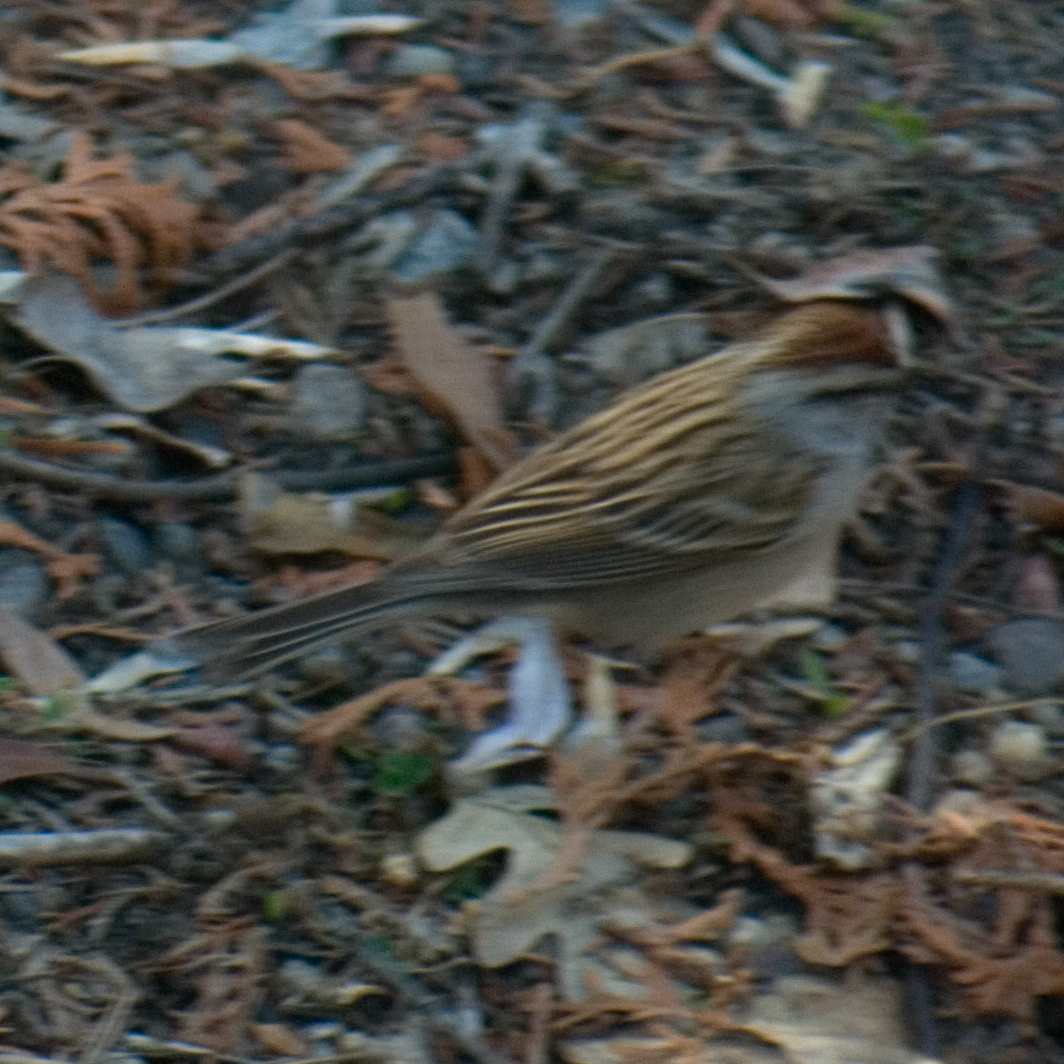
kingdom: Animalia
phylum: Chordata
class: Aves
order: Passeriformes
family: Passerellidae
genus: Spizella
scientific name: Spizella passerina
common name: Chipping sparrow
